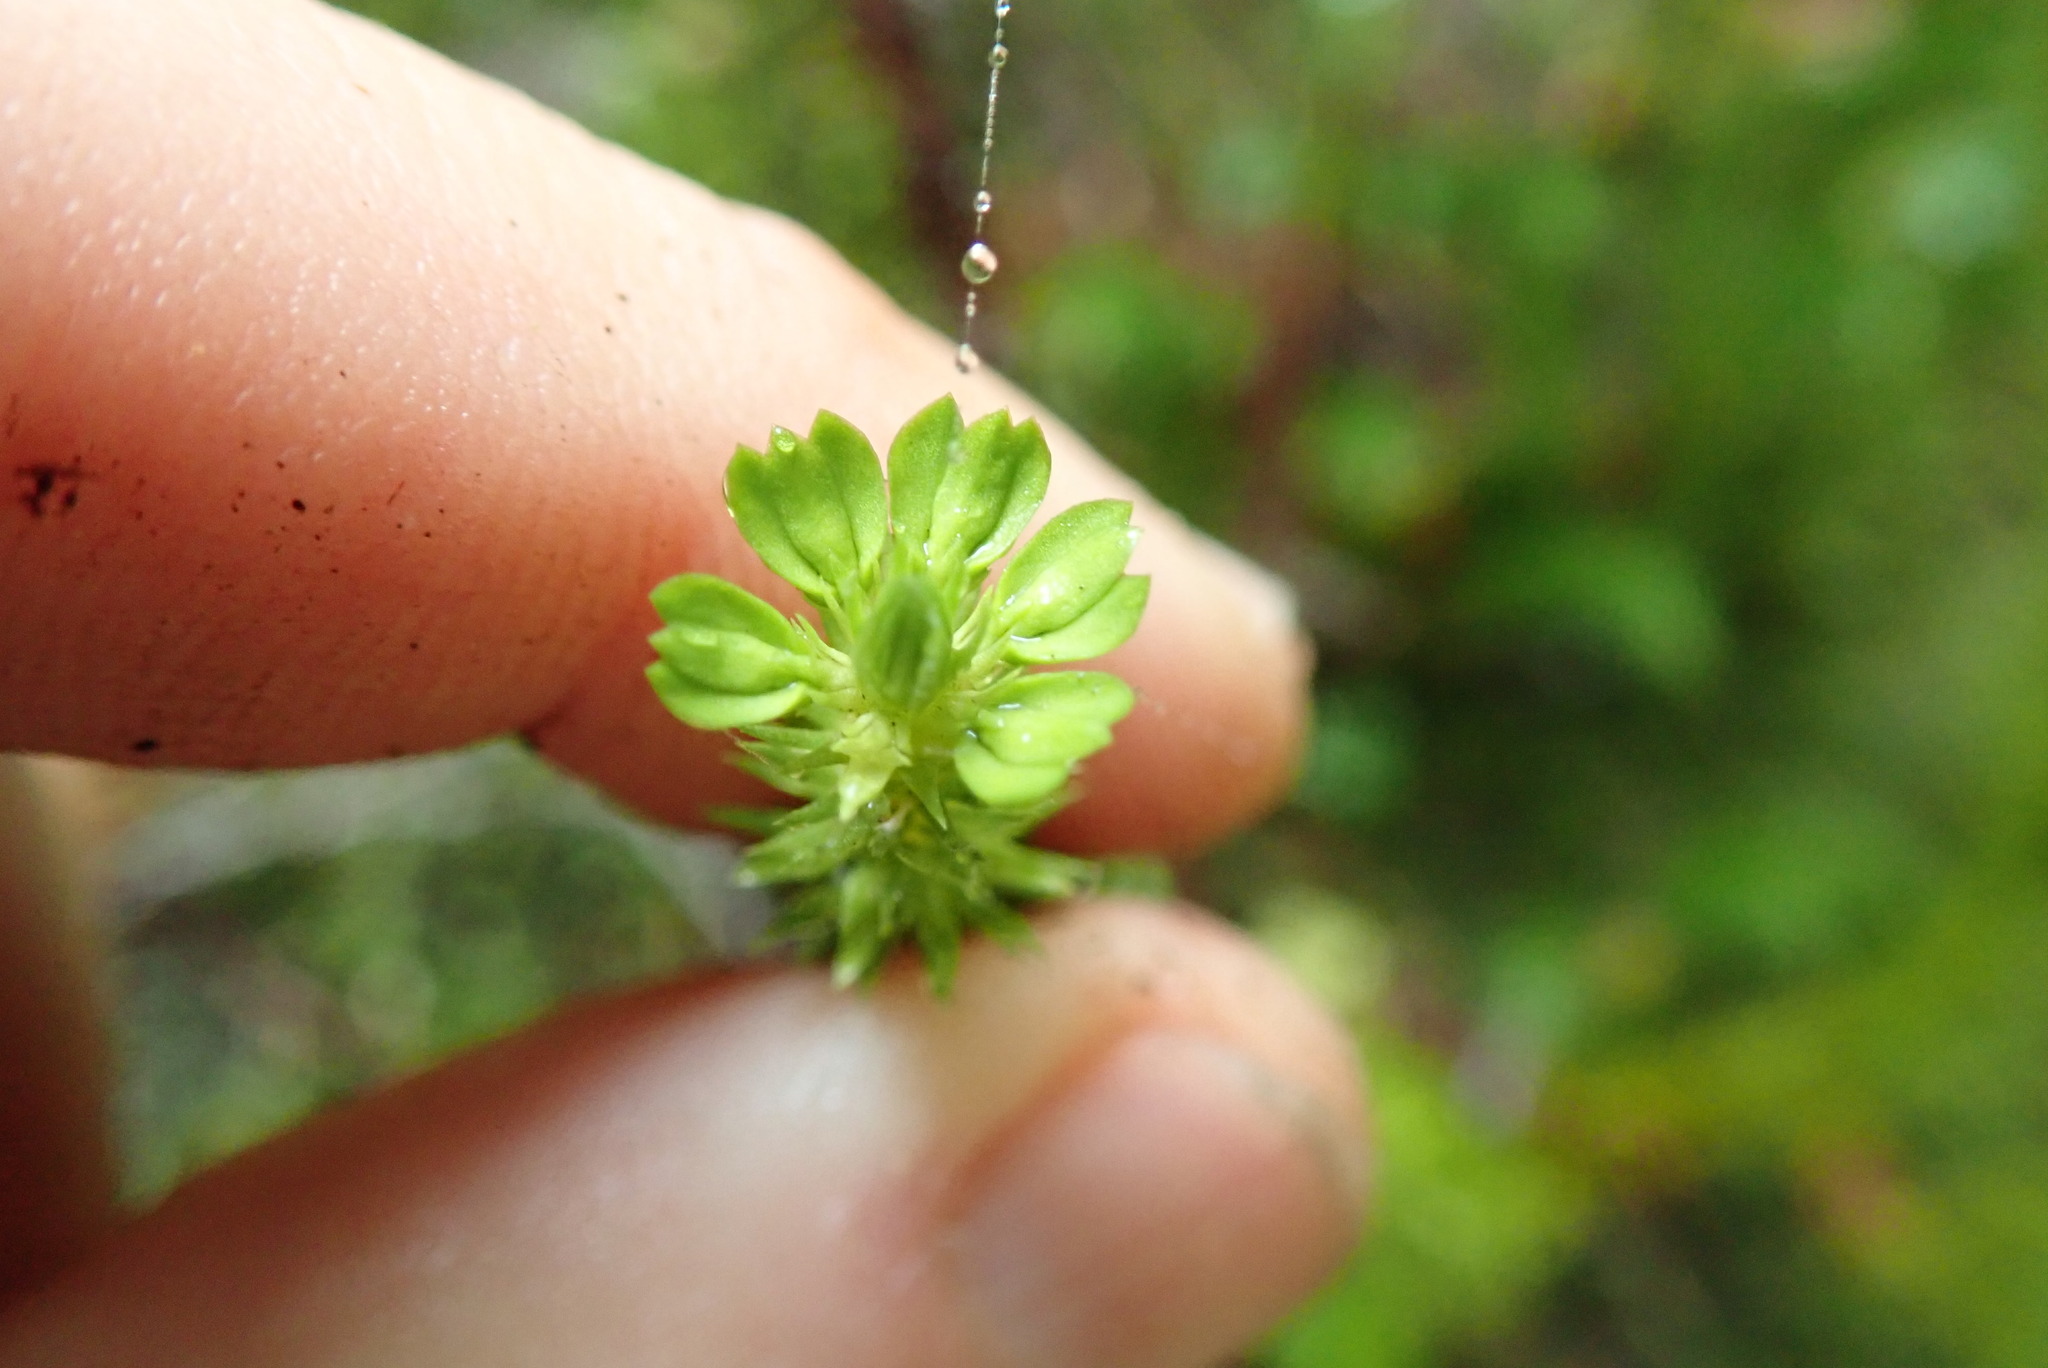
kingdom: Plantae
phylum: Tracheophyta
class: Lycopodiopsida
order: Lycopodiales
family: Lycopodiaceae
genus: Huperzia
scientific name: Huperzia miyoshiana
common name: Chinese clubmoss
